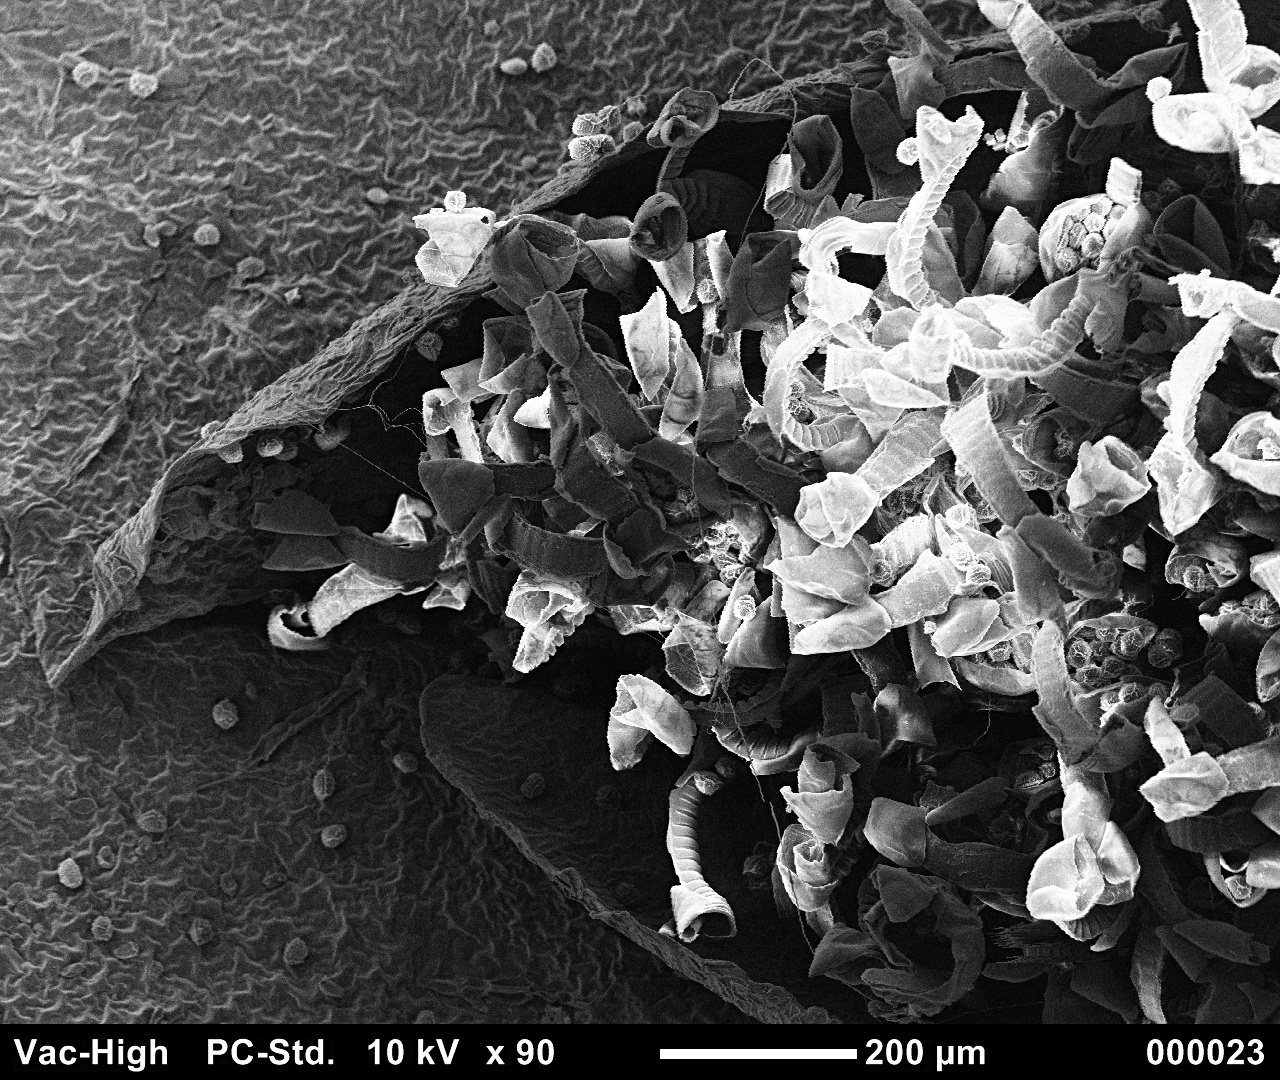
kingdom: Plantae
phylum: Tracheophyta
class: Polypodiopsida
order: Polypodiales
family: Aspleniaceae
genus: Asplenium
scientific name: Asplenium scolopendrium
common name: Hart's-tongue fern
